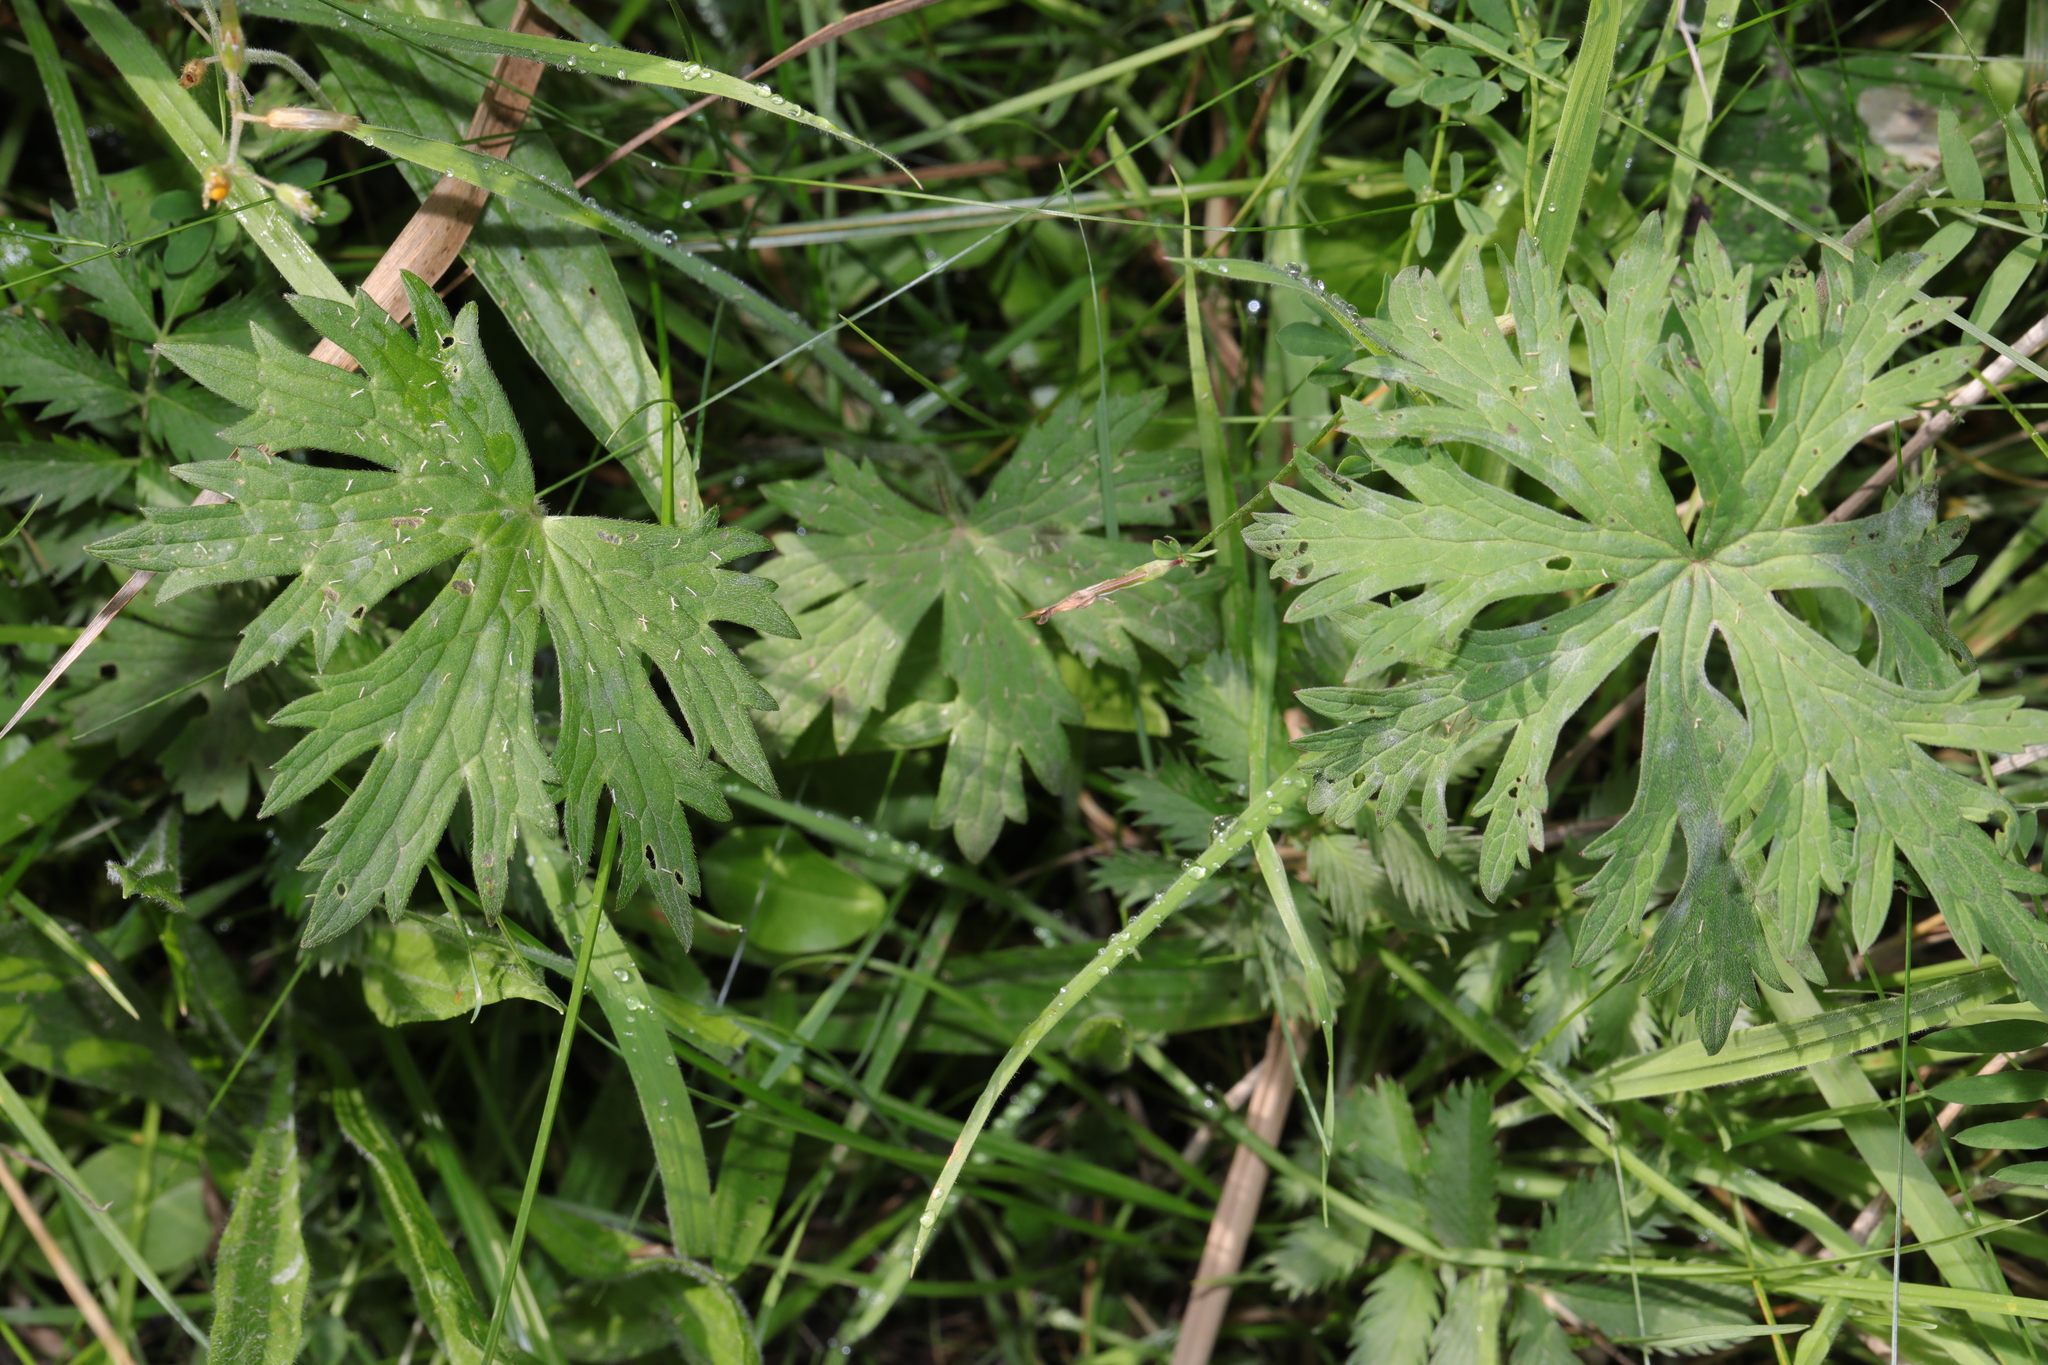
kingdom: Plantae
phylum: Tracheophyta
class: Magnoliopsida
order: Ranunculales
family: Ranunculaceae
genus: Ranunculus
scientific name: Ranunculus acris
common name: Meadow buttercup
